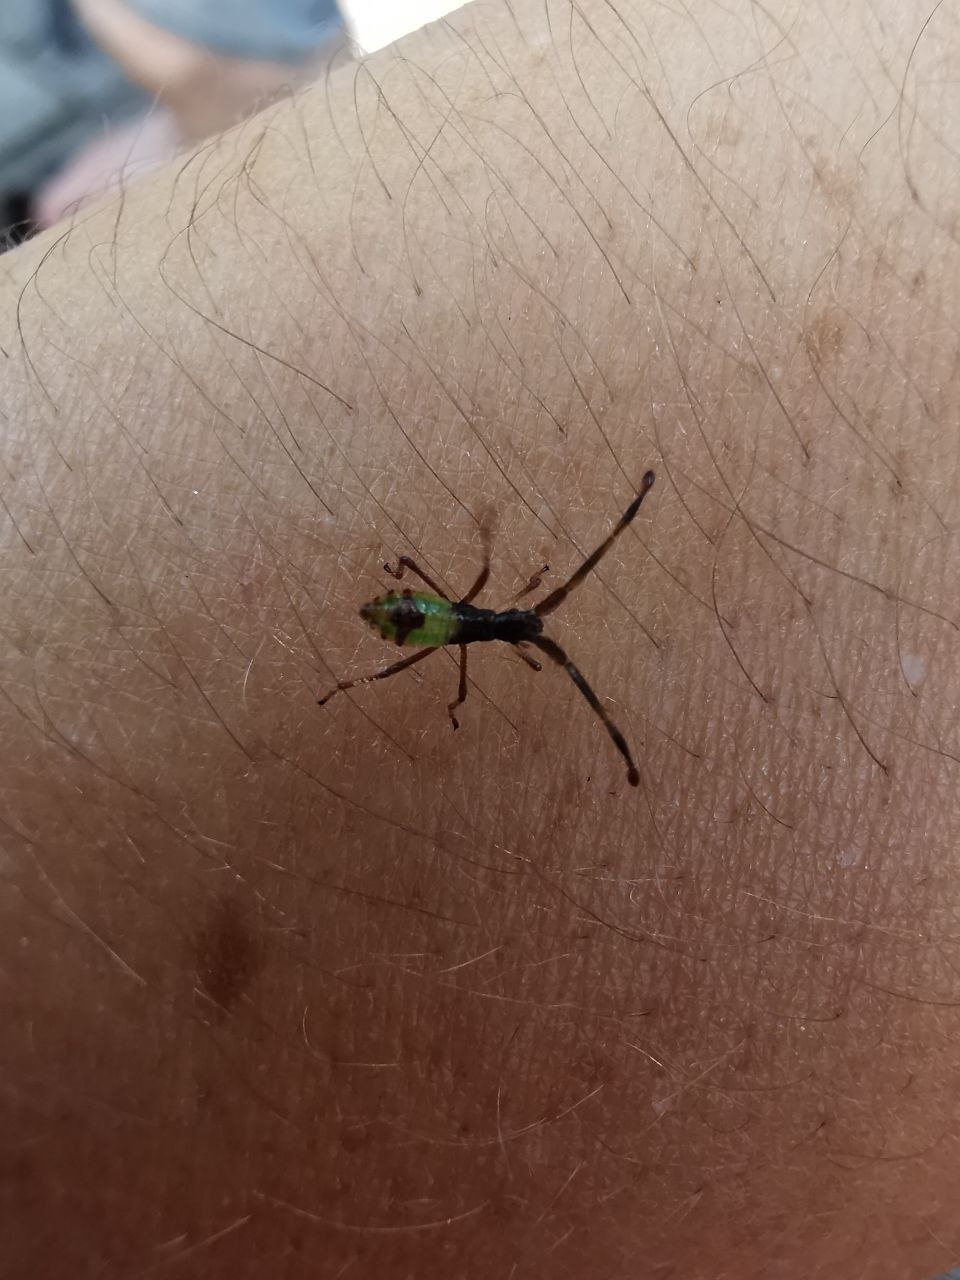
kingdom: Animalia
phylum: Arthropoda
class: Insecta
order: Hemiptera
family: Coreidae
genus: Gonocerus
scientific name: Gonocerus acuteangulatus
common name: Box bug
